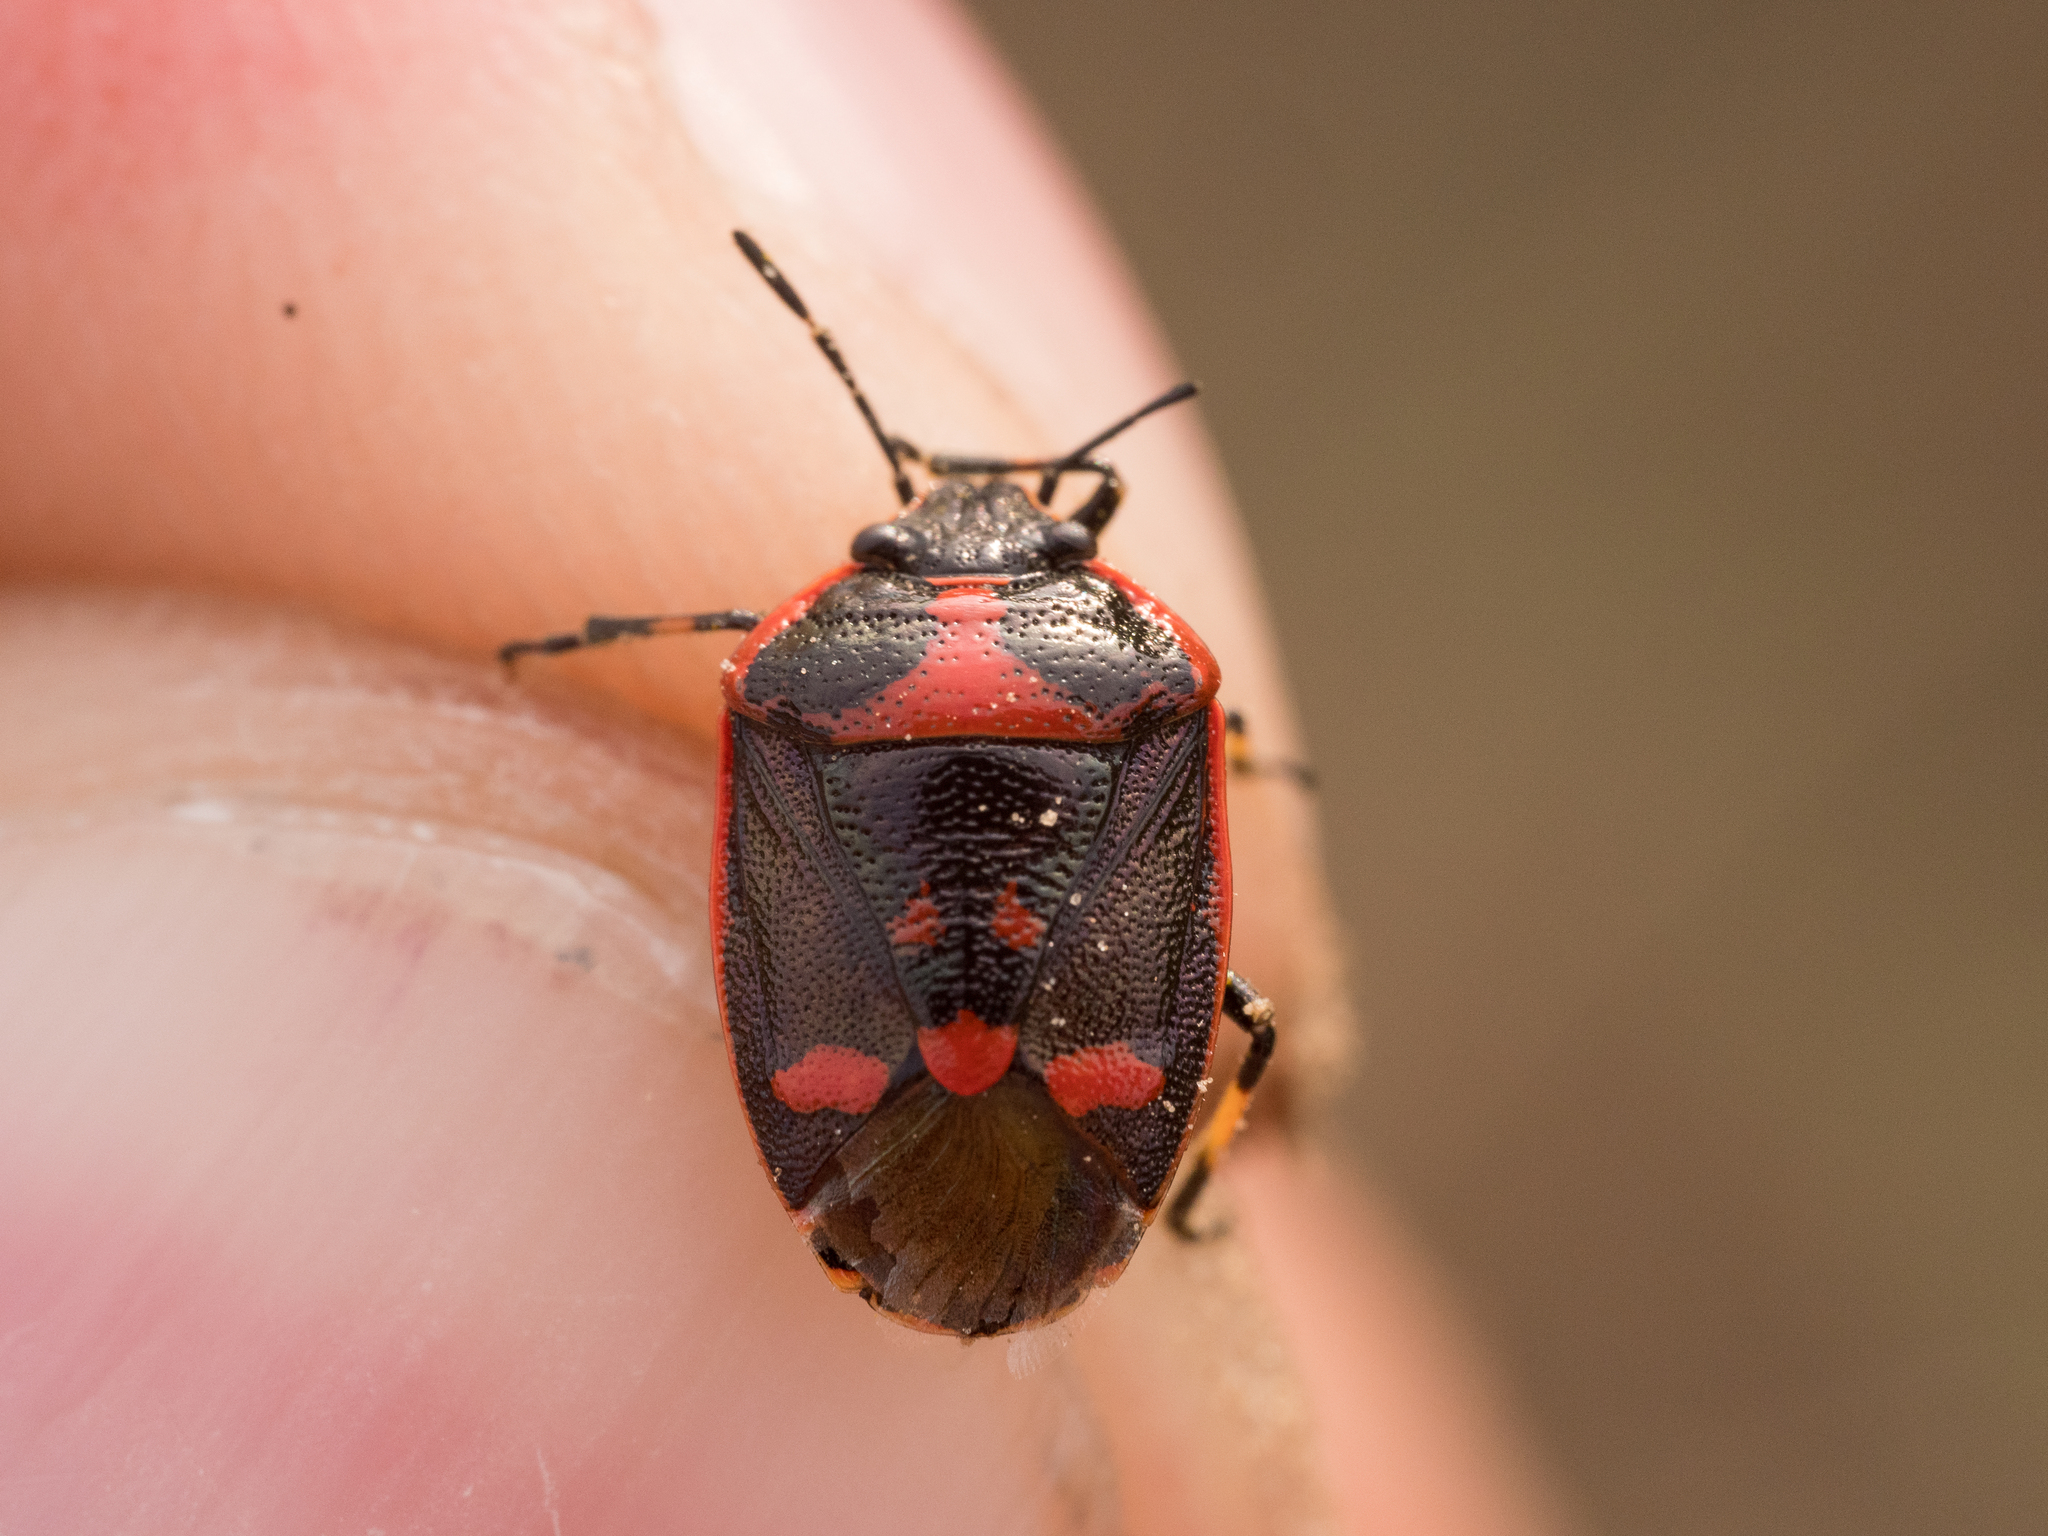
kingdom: Animalia
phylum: Arthropoda
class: Insecta
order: Hemiptera
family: Pentatomidae
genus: Eurydema
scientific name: Eurydema oleracea
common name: Cabbage bug
